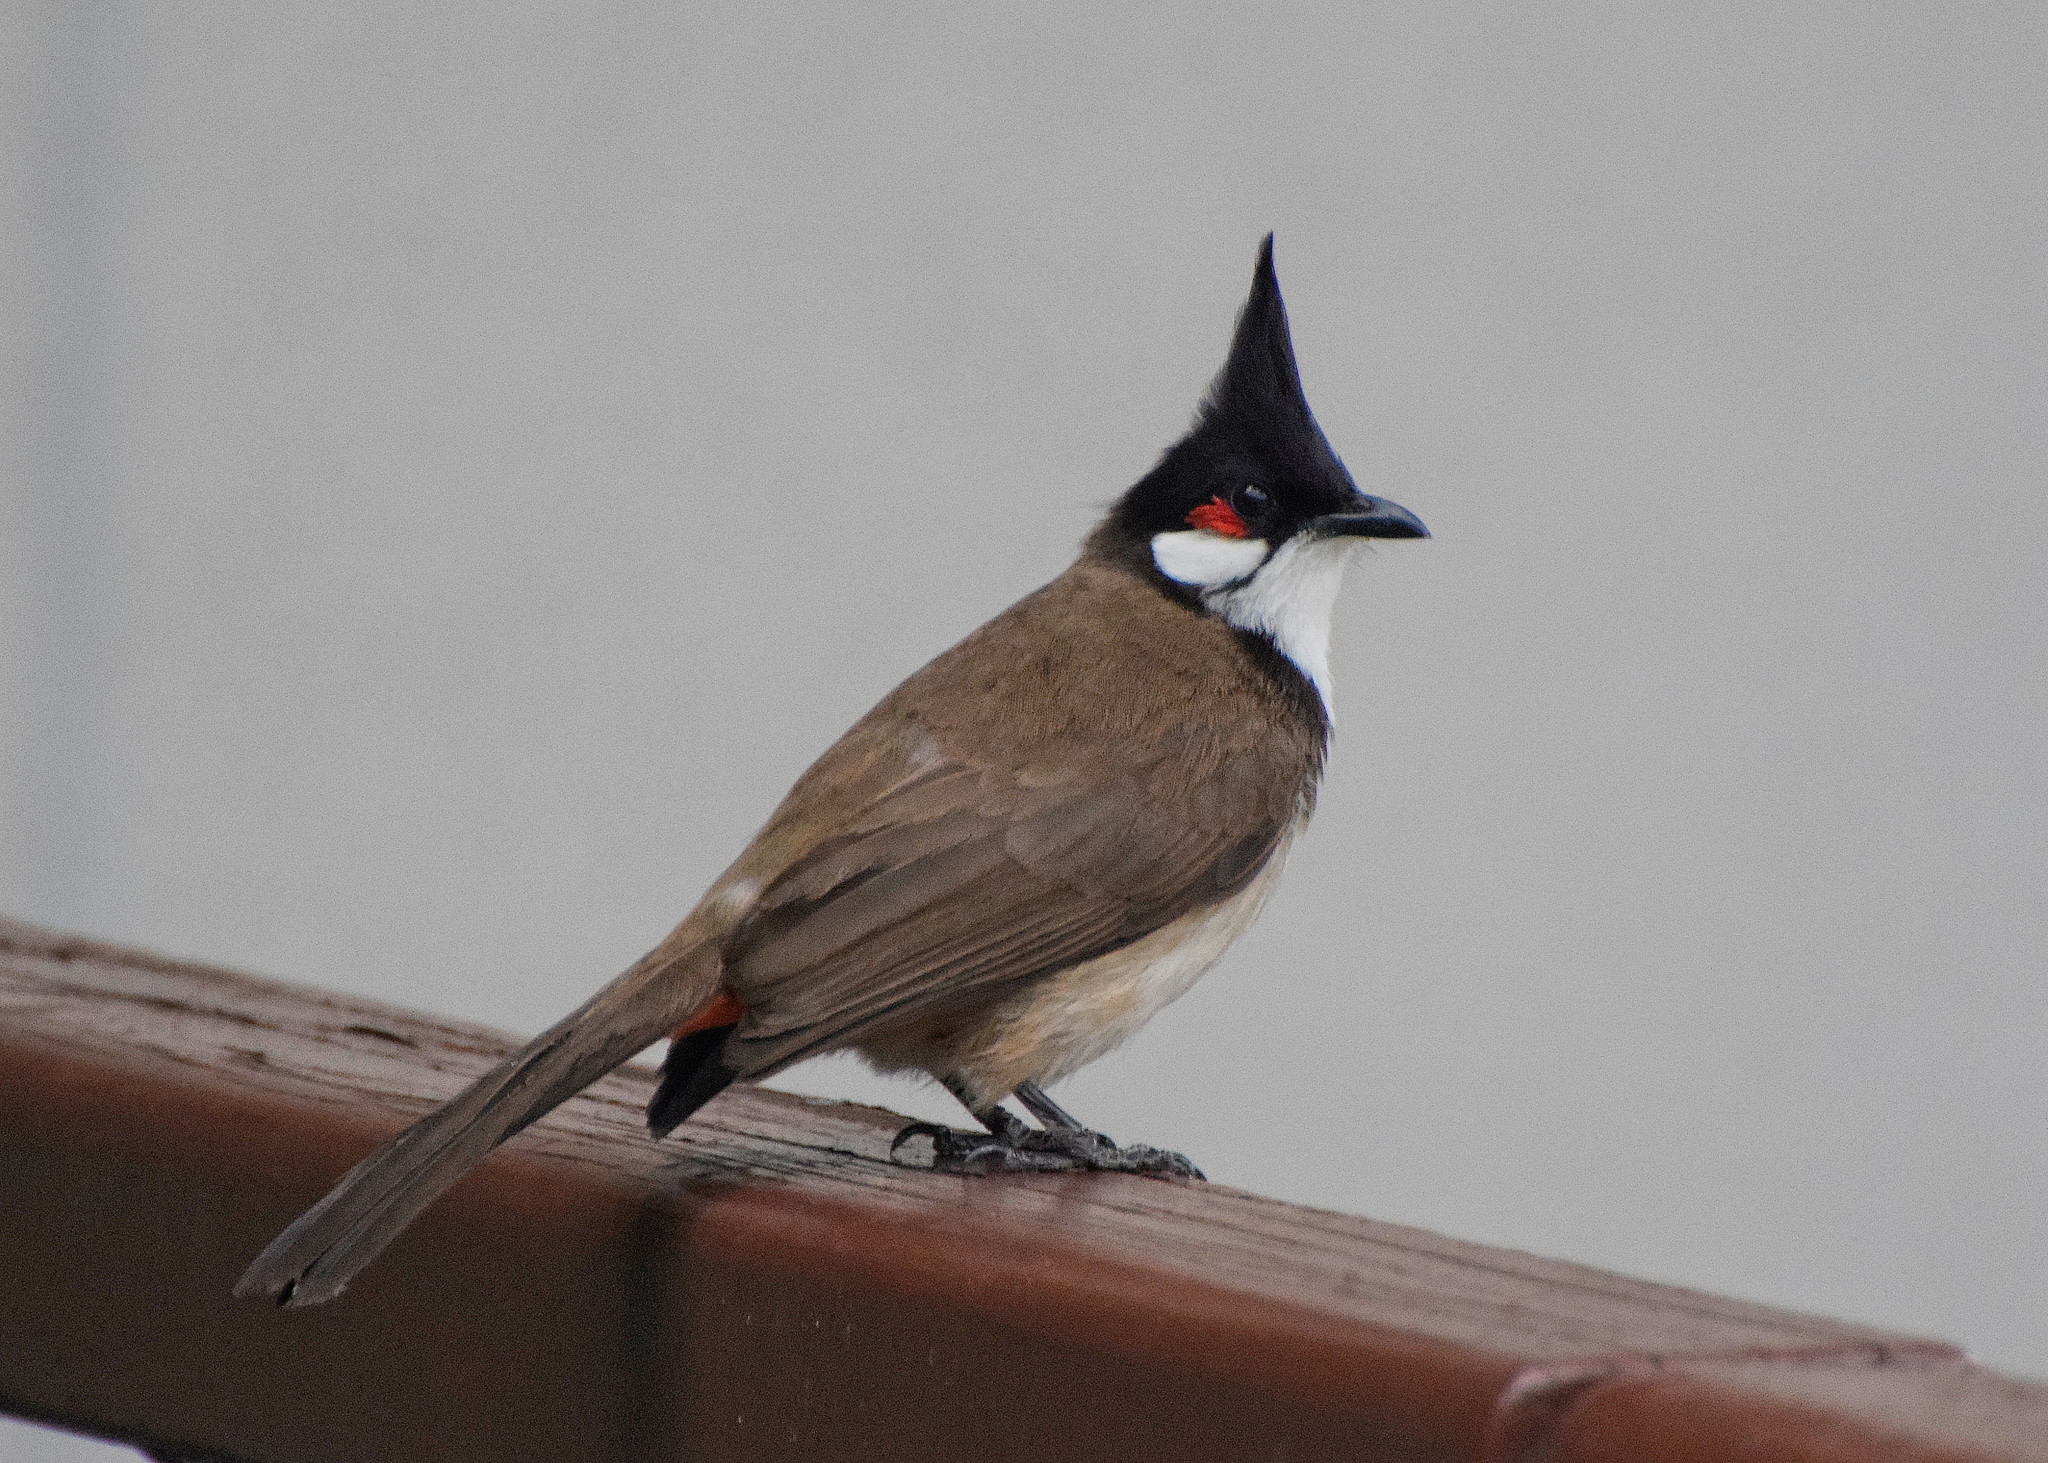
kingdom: Animalia
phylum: Chordata
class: Aves
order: Passeriformes
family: Pycnonotidae
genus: Pycnonotus
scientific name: Pycnonotus jocosus
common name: Red-whiskered bulbul
